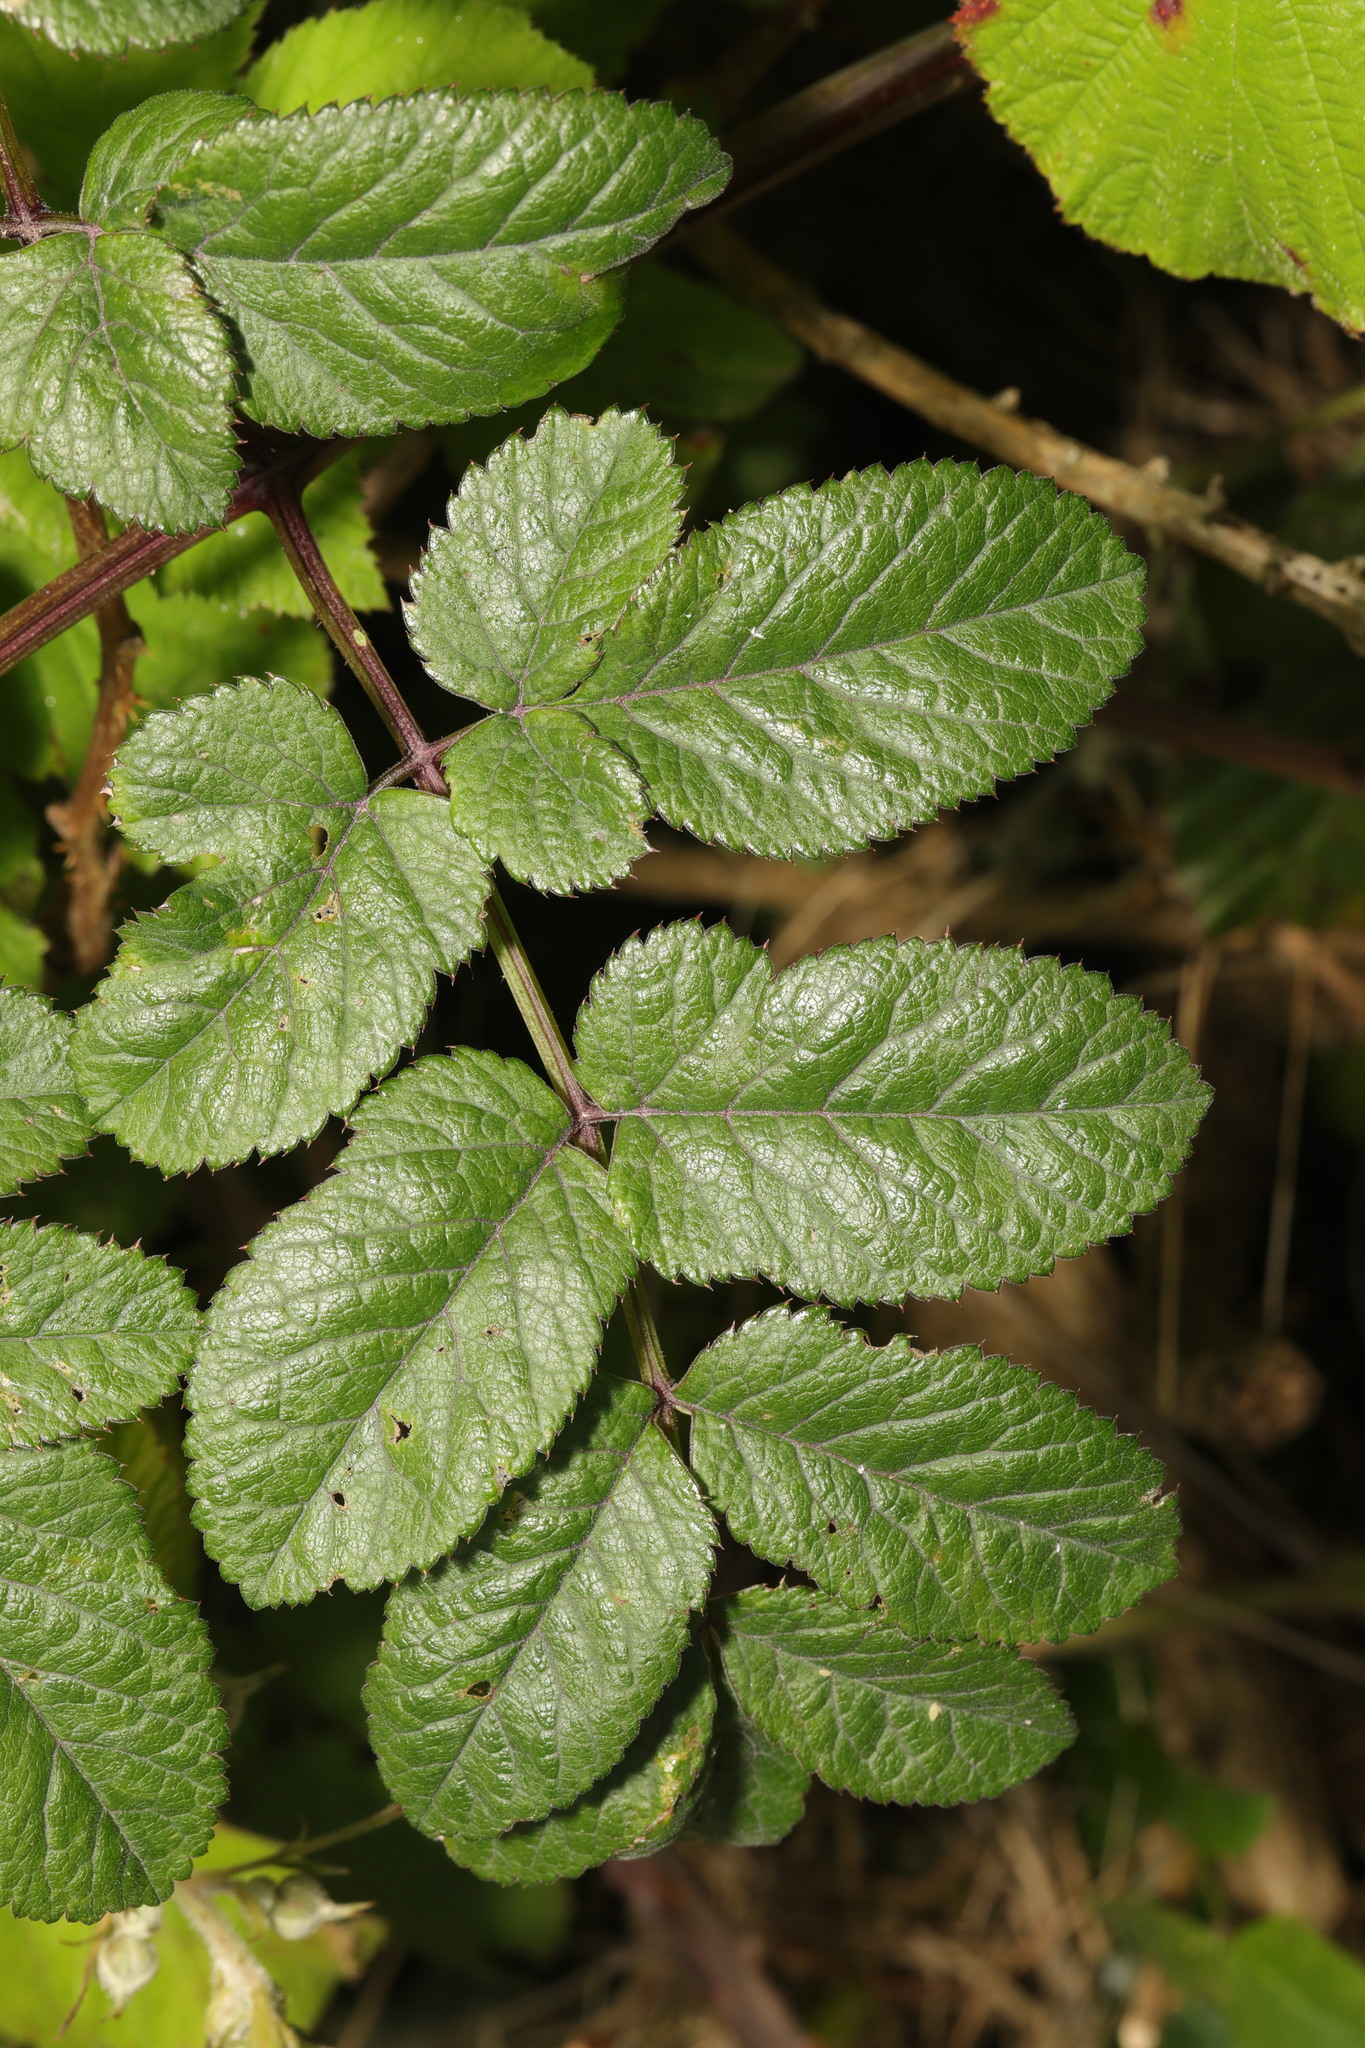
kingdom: Plantae
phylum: Tracheophyta
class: Magnoliopsida
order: Apiales
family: Apiaceae
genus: Angelica
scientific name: Angelica sylvestris
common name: Wild angelica
